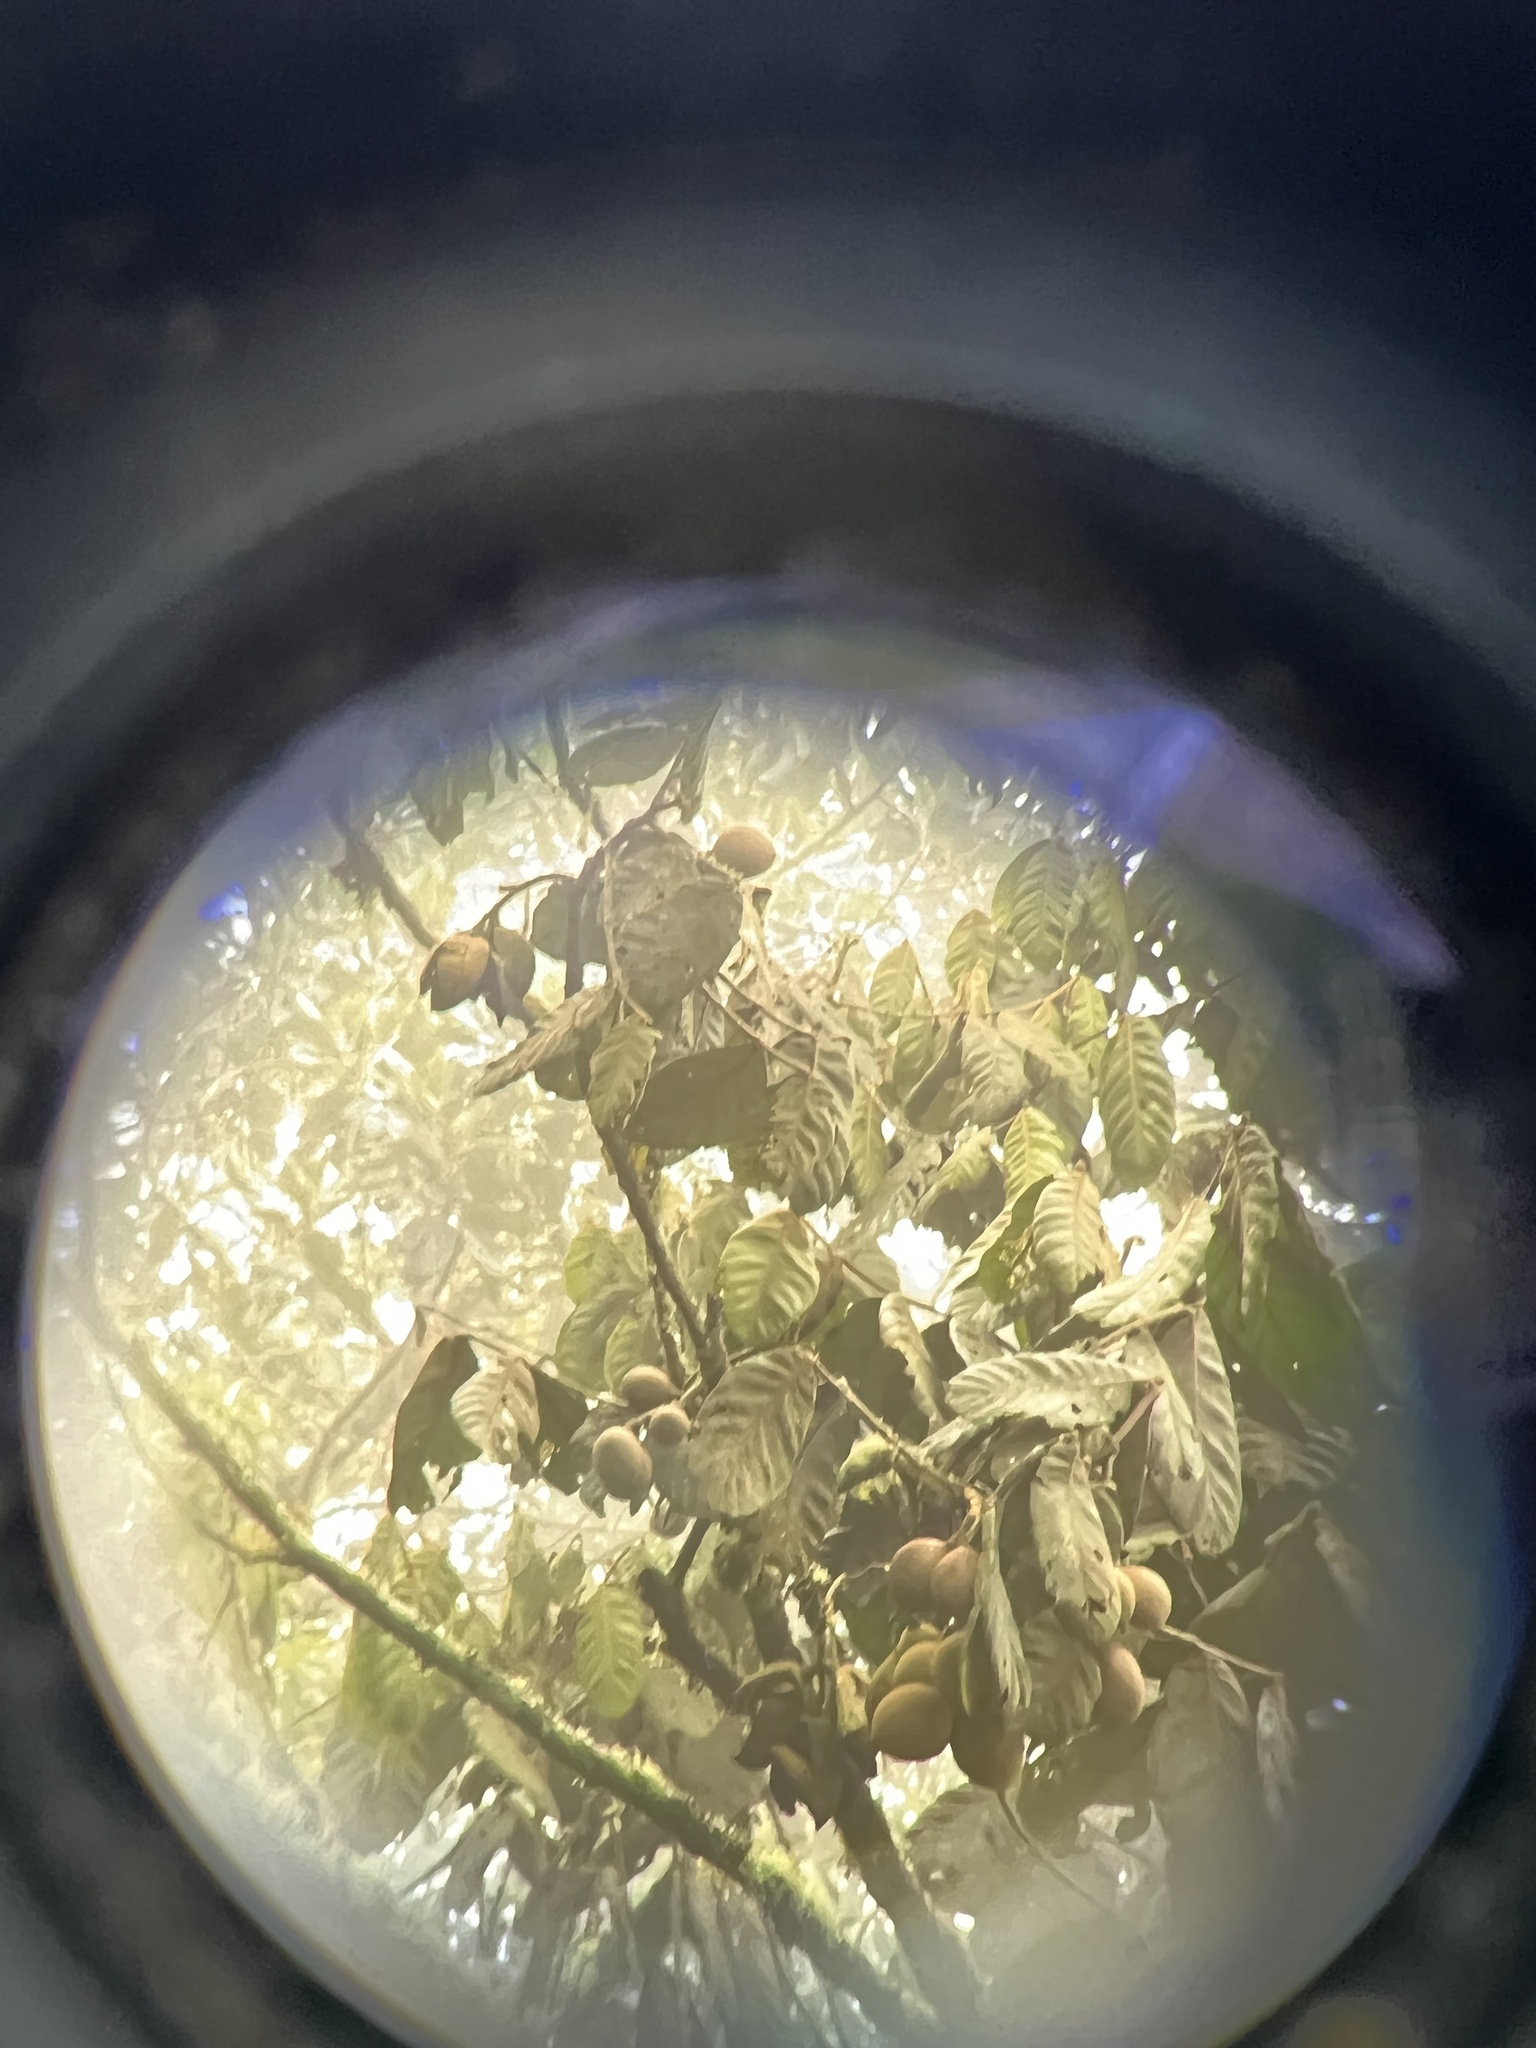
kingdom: Plantae
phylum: Tracheophyta
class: Magnoliopsida
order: Sapindales
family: Meliaceae
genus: Guarea
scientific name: Guarea kunthiana
